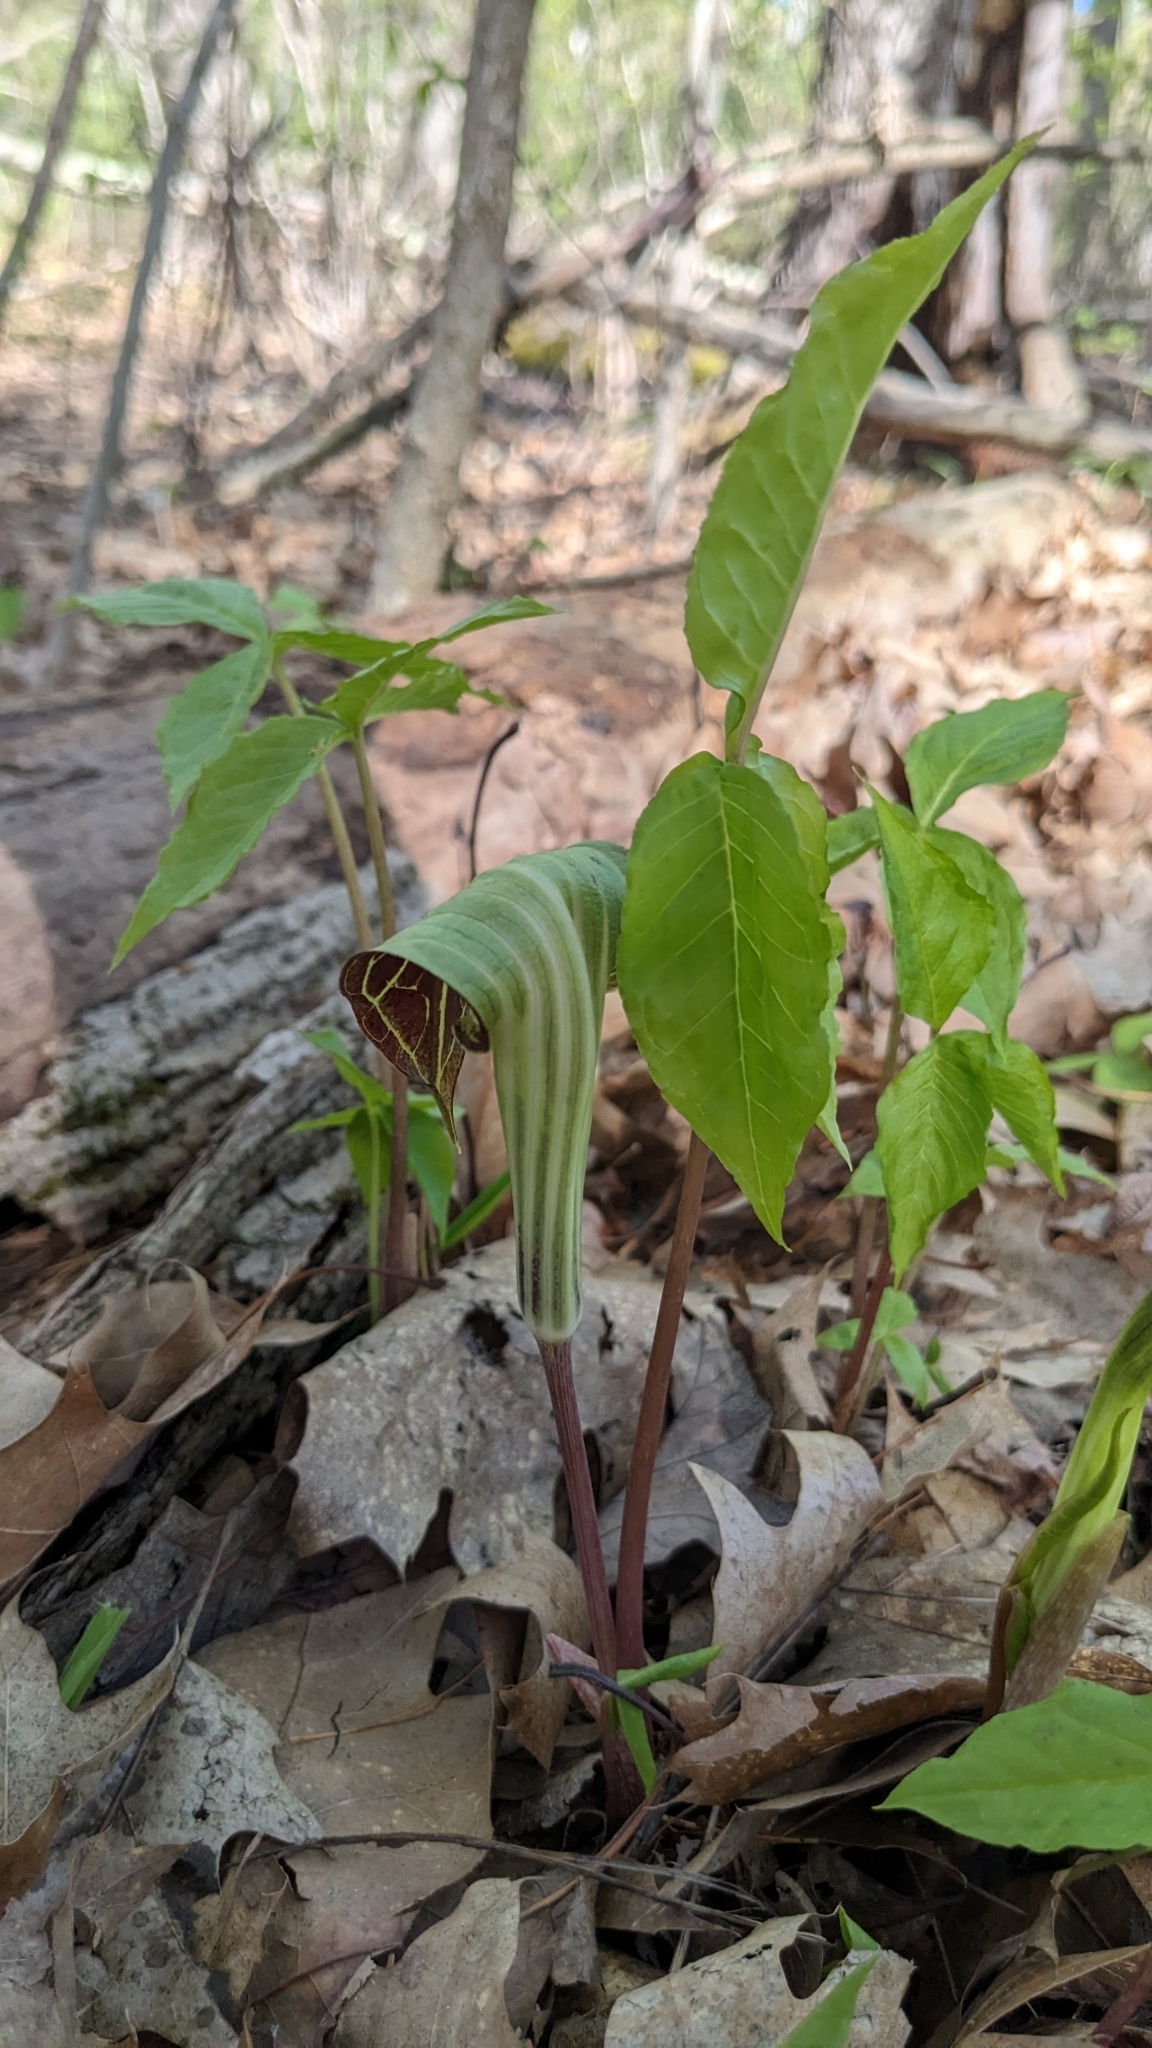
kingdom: Plantae
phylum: Tracheophyta
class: Liliopsida
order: Alismatales
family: Araceae
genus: Arisaema
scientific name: Arisaema triphyllum
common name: Jack-in-the-pulpit
